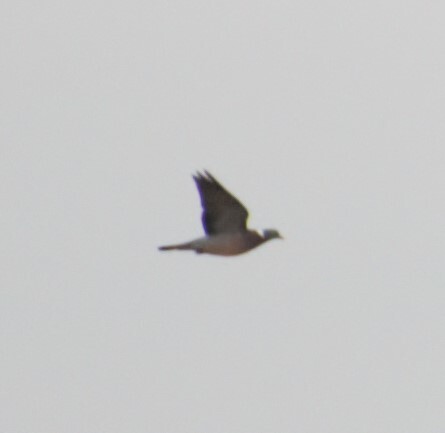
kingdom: Animalia
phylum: Chordata
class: Aves
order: Columbiformes
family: Columbidae
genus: Columba
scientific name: Columba palumbus
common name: Common wood pigeon
